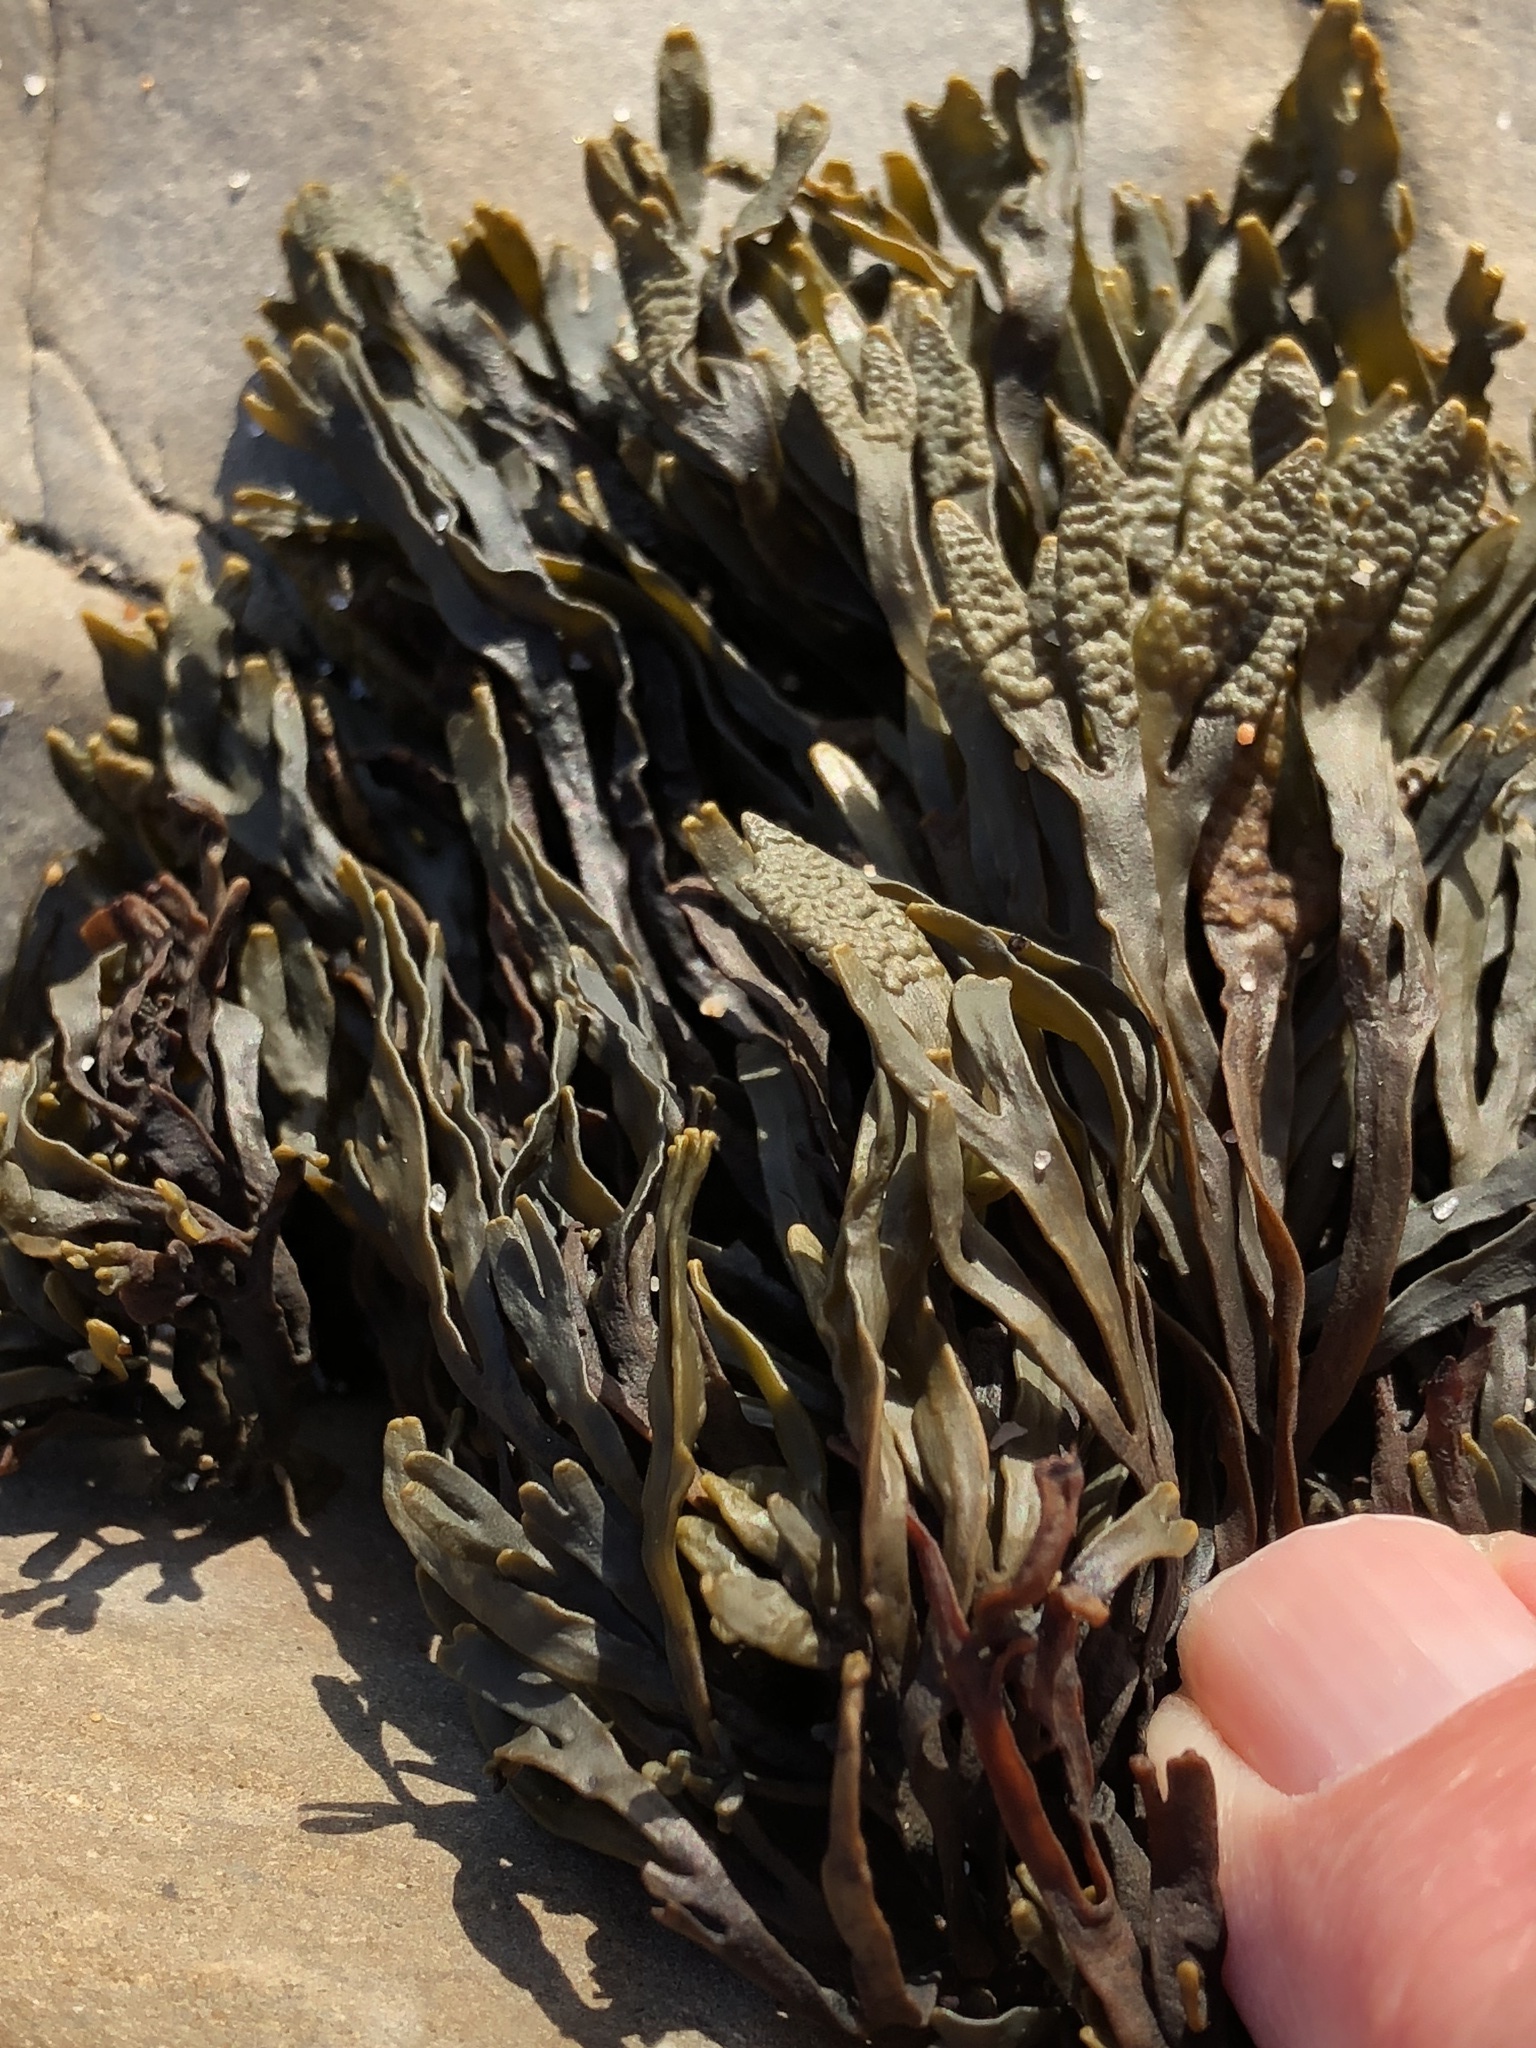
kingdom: Chromista
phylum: Ochrophyta
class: Phaeophyceae
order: Fucales
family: Fucaceae
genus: Pelvetiopsis
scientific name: Pelvetiopsis limitata
